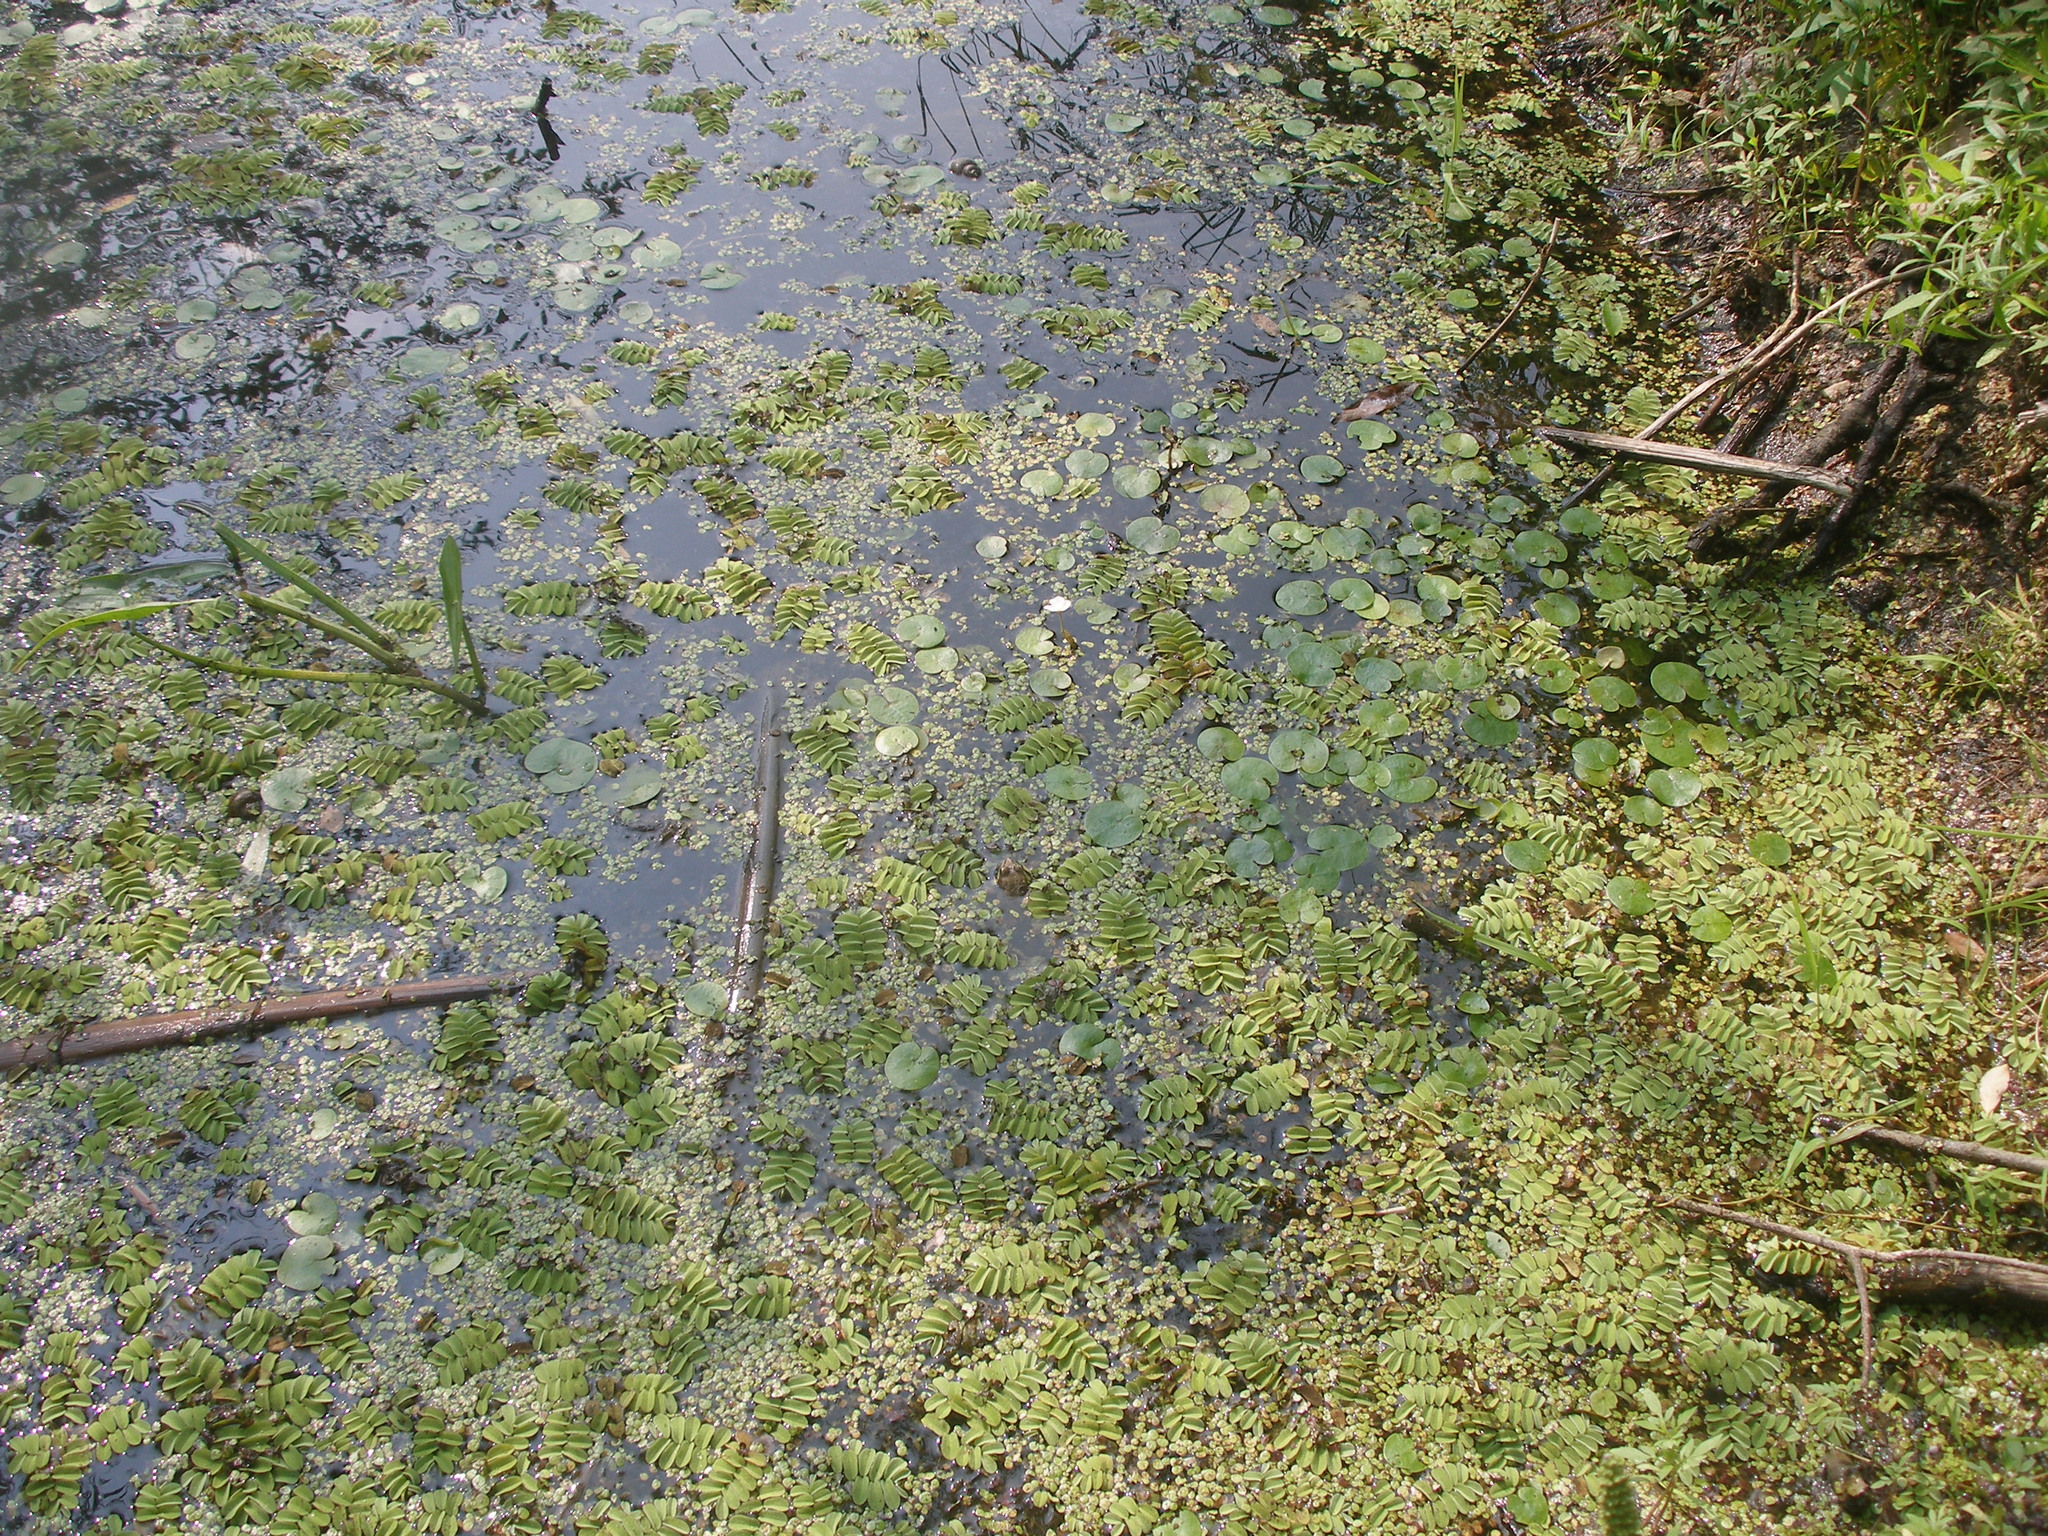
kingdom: Plantae
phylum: Tracheophyta
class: Polypodiopsida
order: Salviniales
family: Salviniaceae
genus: Salvinia
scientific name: Salvinia natans
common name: Floating fern
